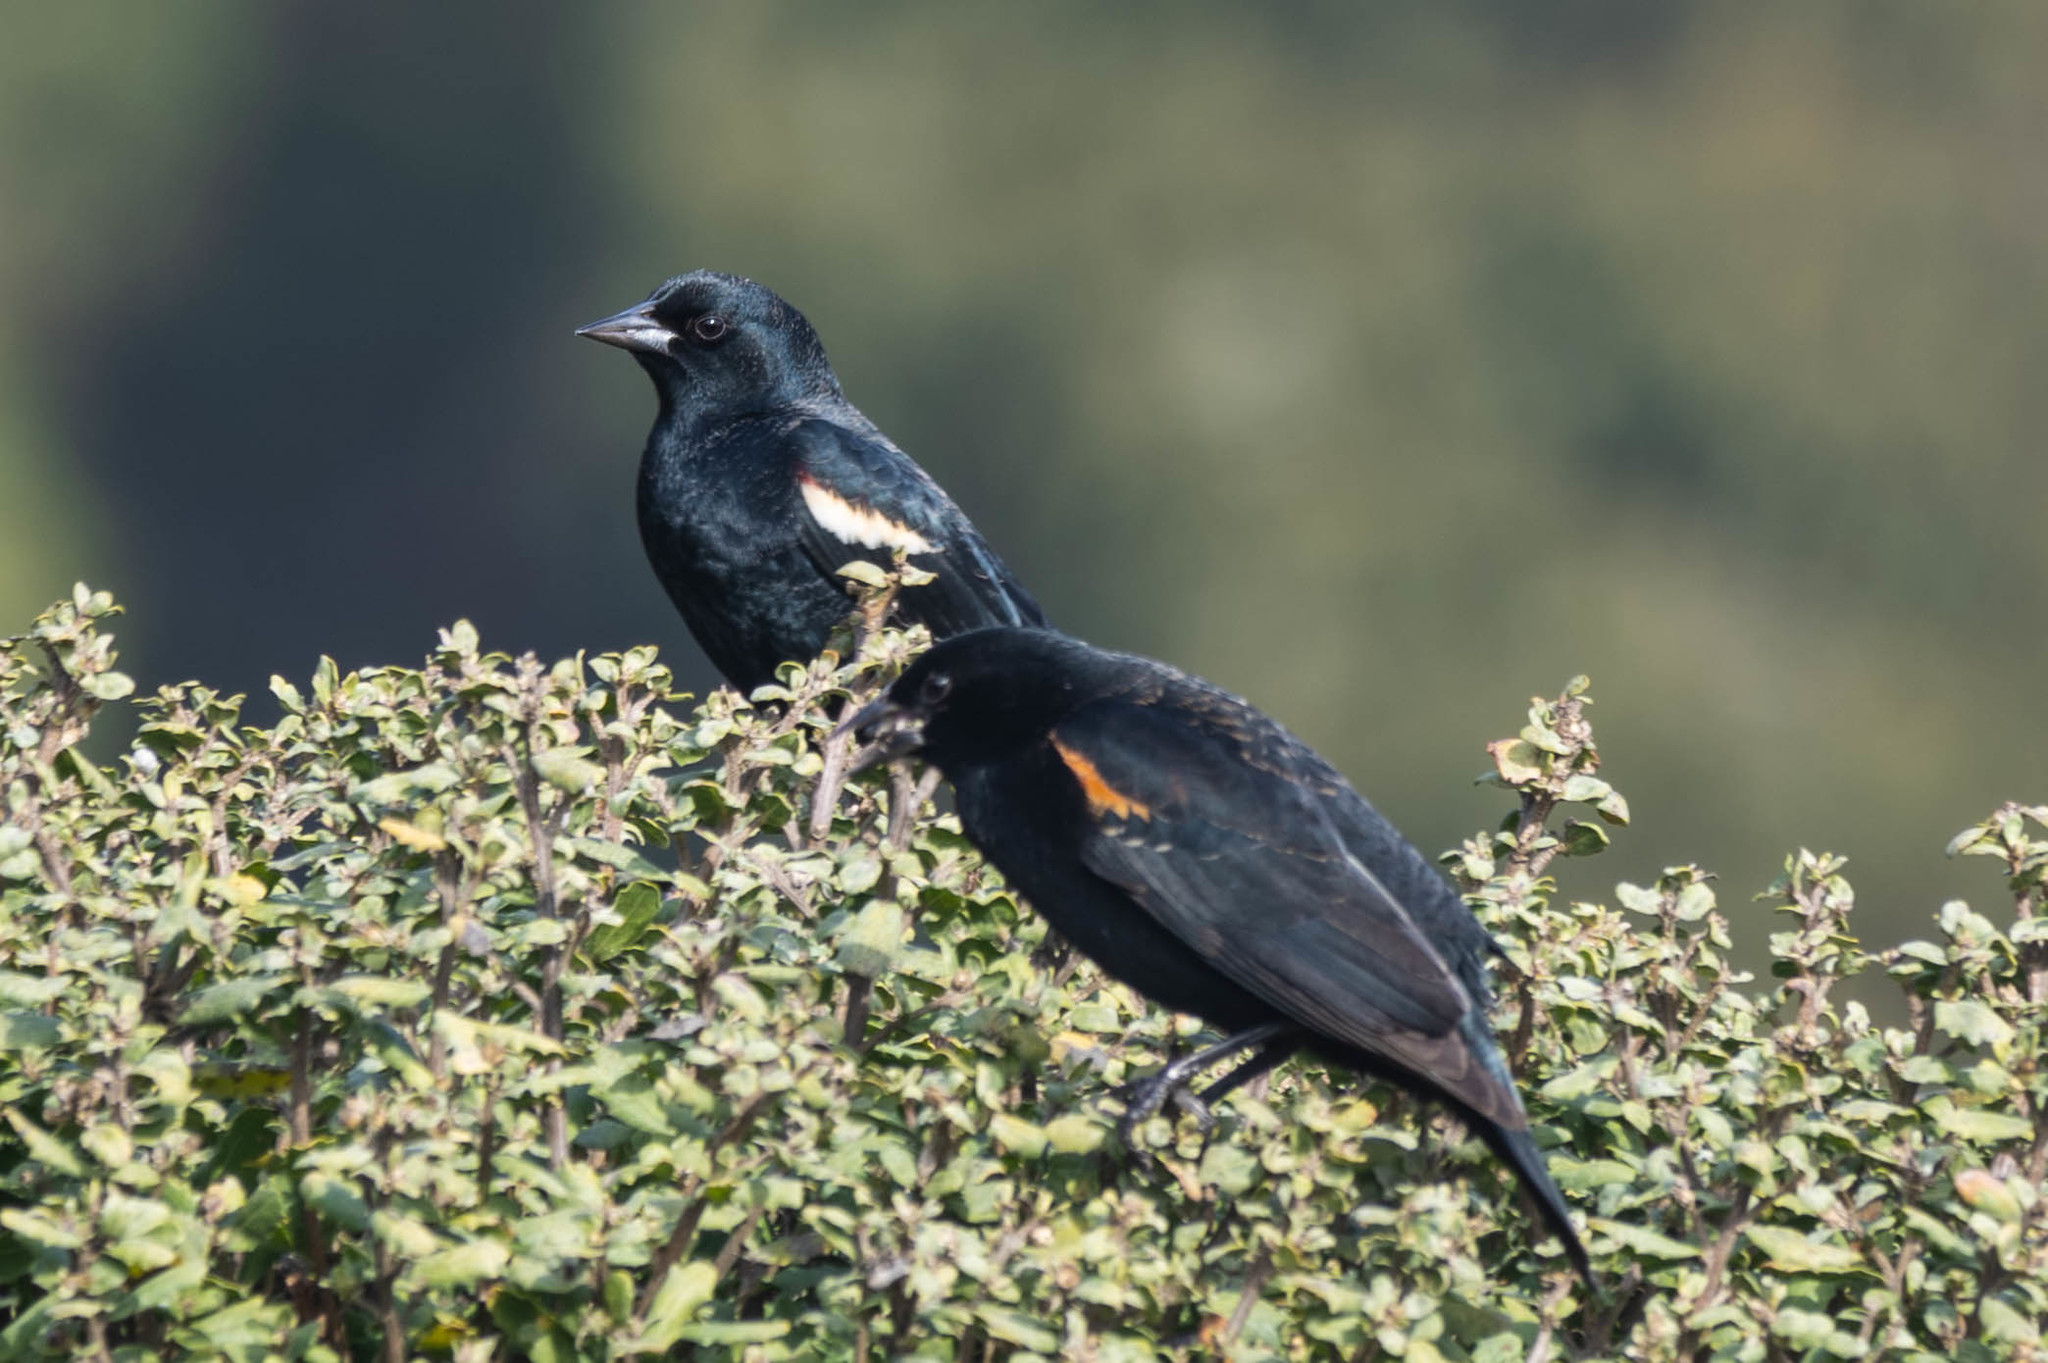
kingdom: Animalia
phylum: Chordata
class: Aves
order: Passeriformes
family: Icteridae
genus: Agelaius
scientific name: Agelaius tricolor
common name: Tricolored blackbird
